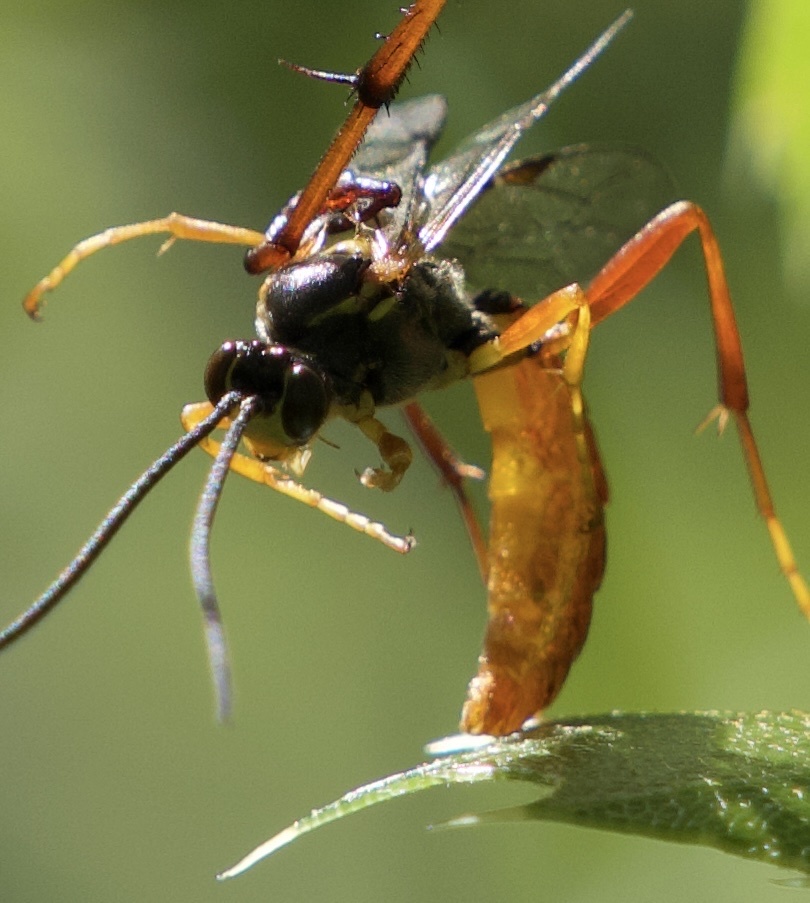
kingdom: Animalia
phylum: Arthropoda
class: Insecta
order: Mecoptera
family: Bittacidae
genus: Bittacus
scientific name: Bittacus chlorostigma
